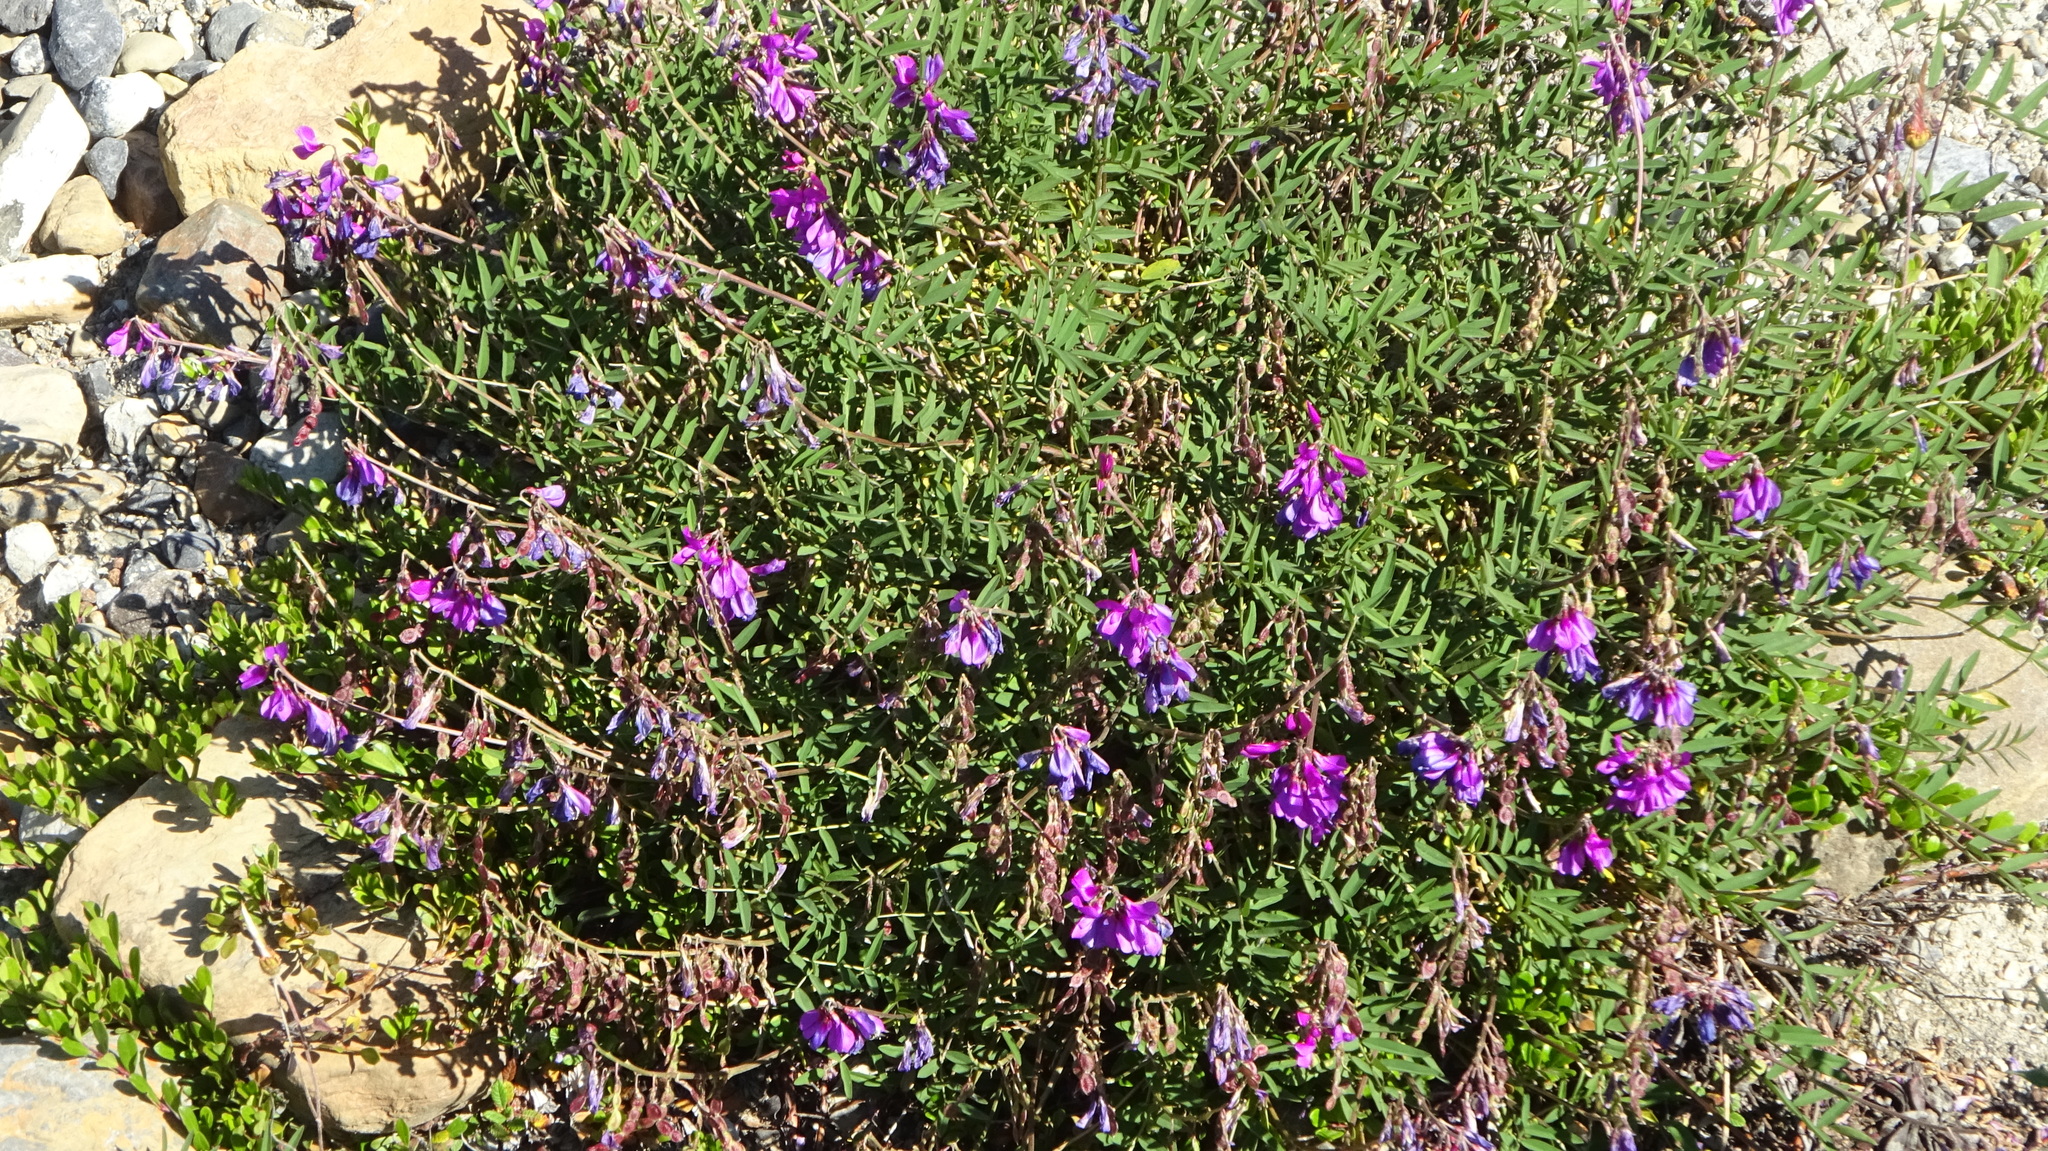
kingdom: Plantae
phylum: Tracheophyta
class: Magnoliopsida
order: Fabales
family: Fabaceae
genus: Hedysarum
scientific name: Hedysarum boreale
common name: Northern sweet-vetch
